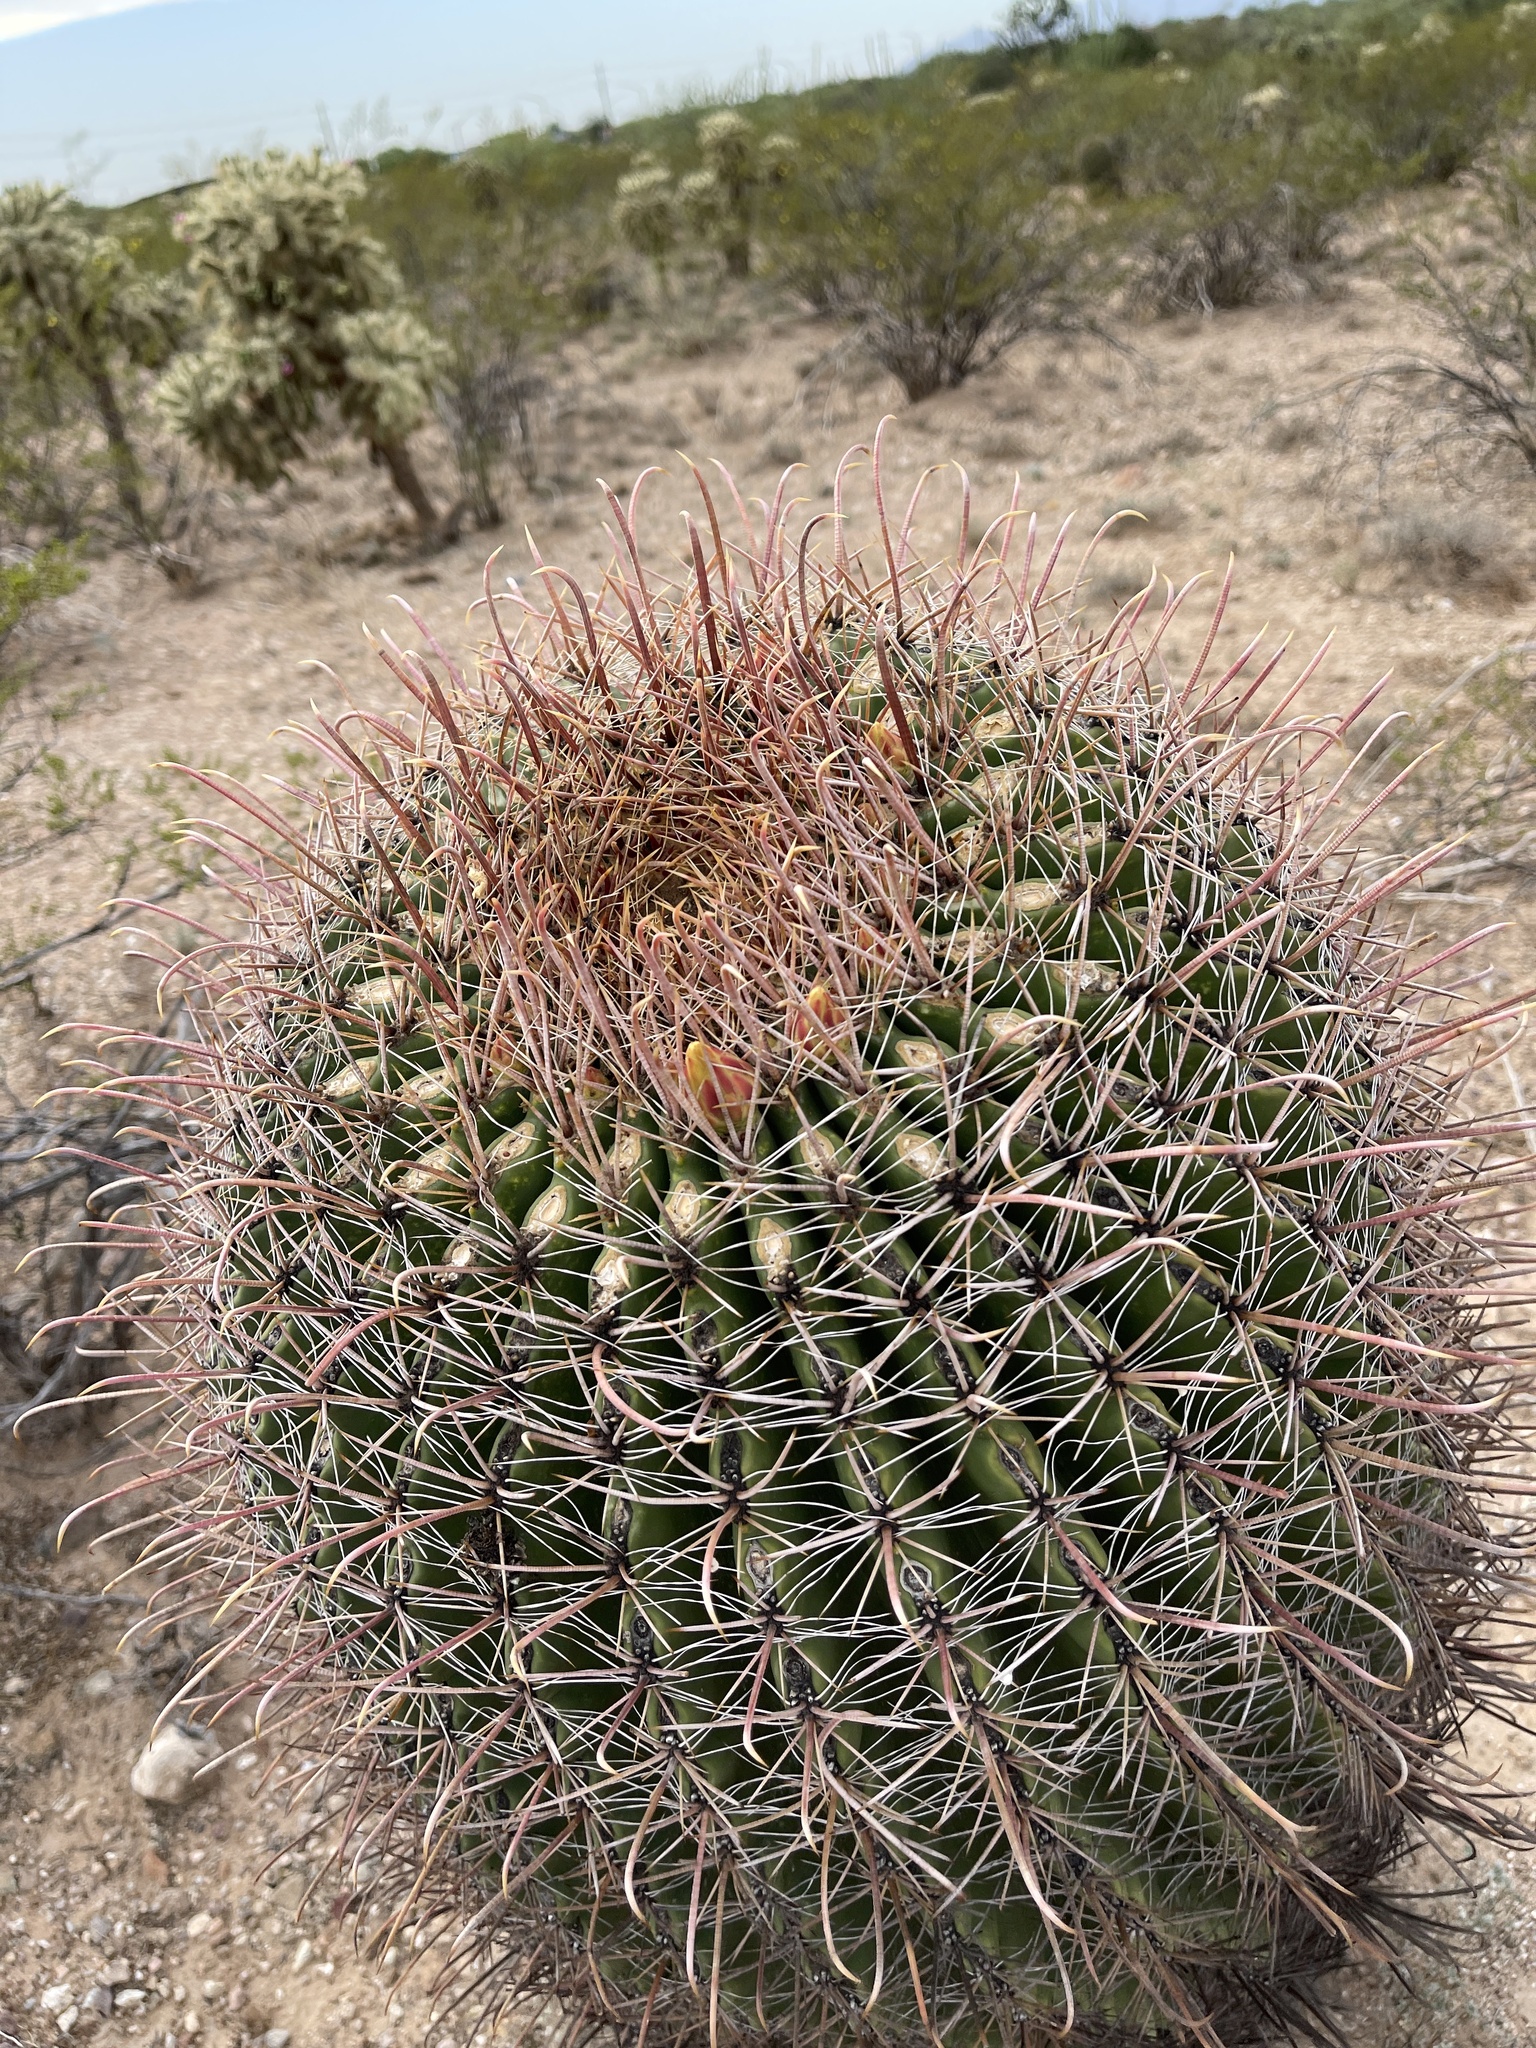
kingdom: Plantae
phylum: Tracheophyta
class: Magnoliopsida
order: Caryophyllales
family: Cactaceae
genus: Ferocactus
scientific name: Ferocactus wislizeni
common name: Candy barrel cactus
